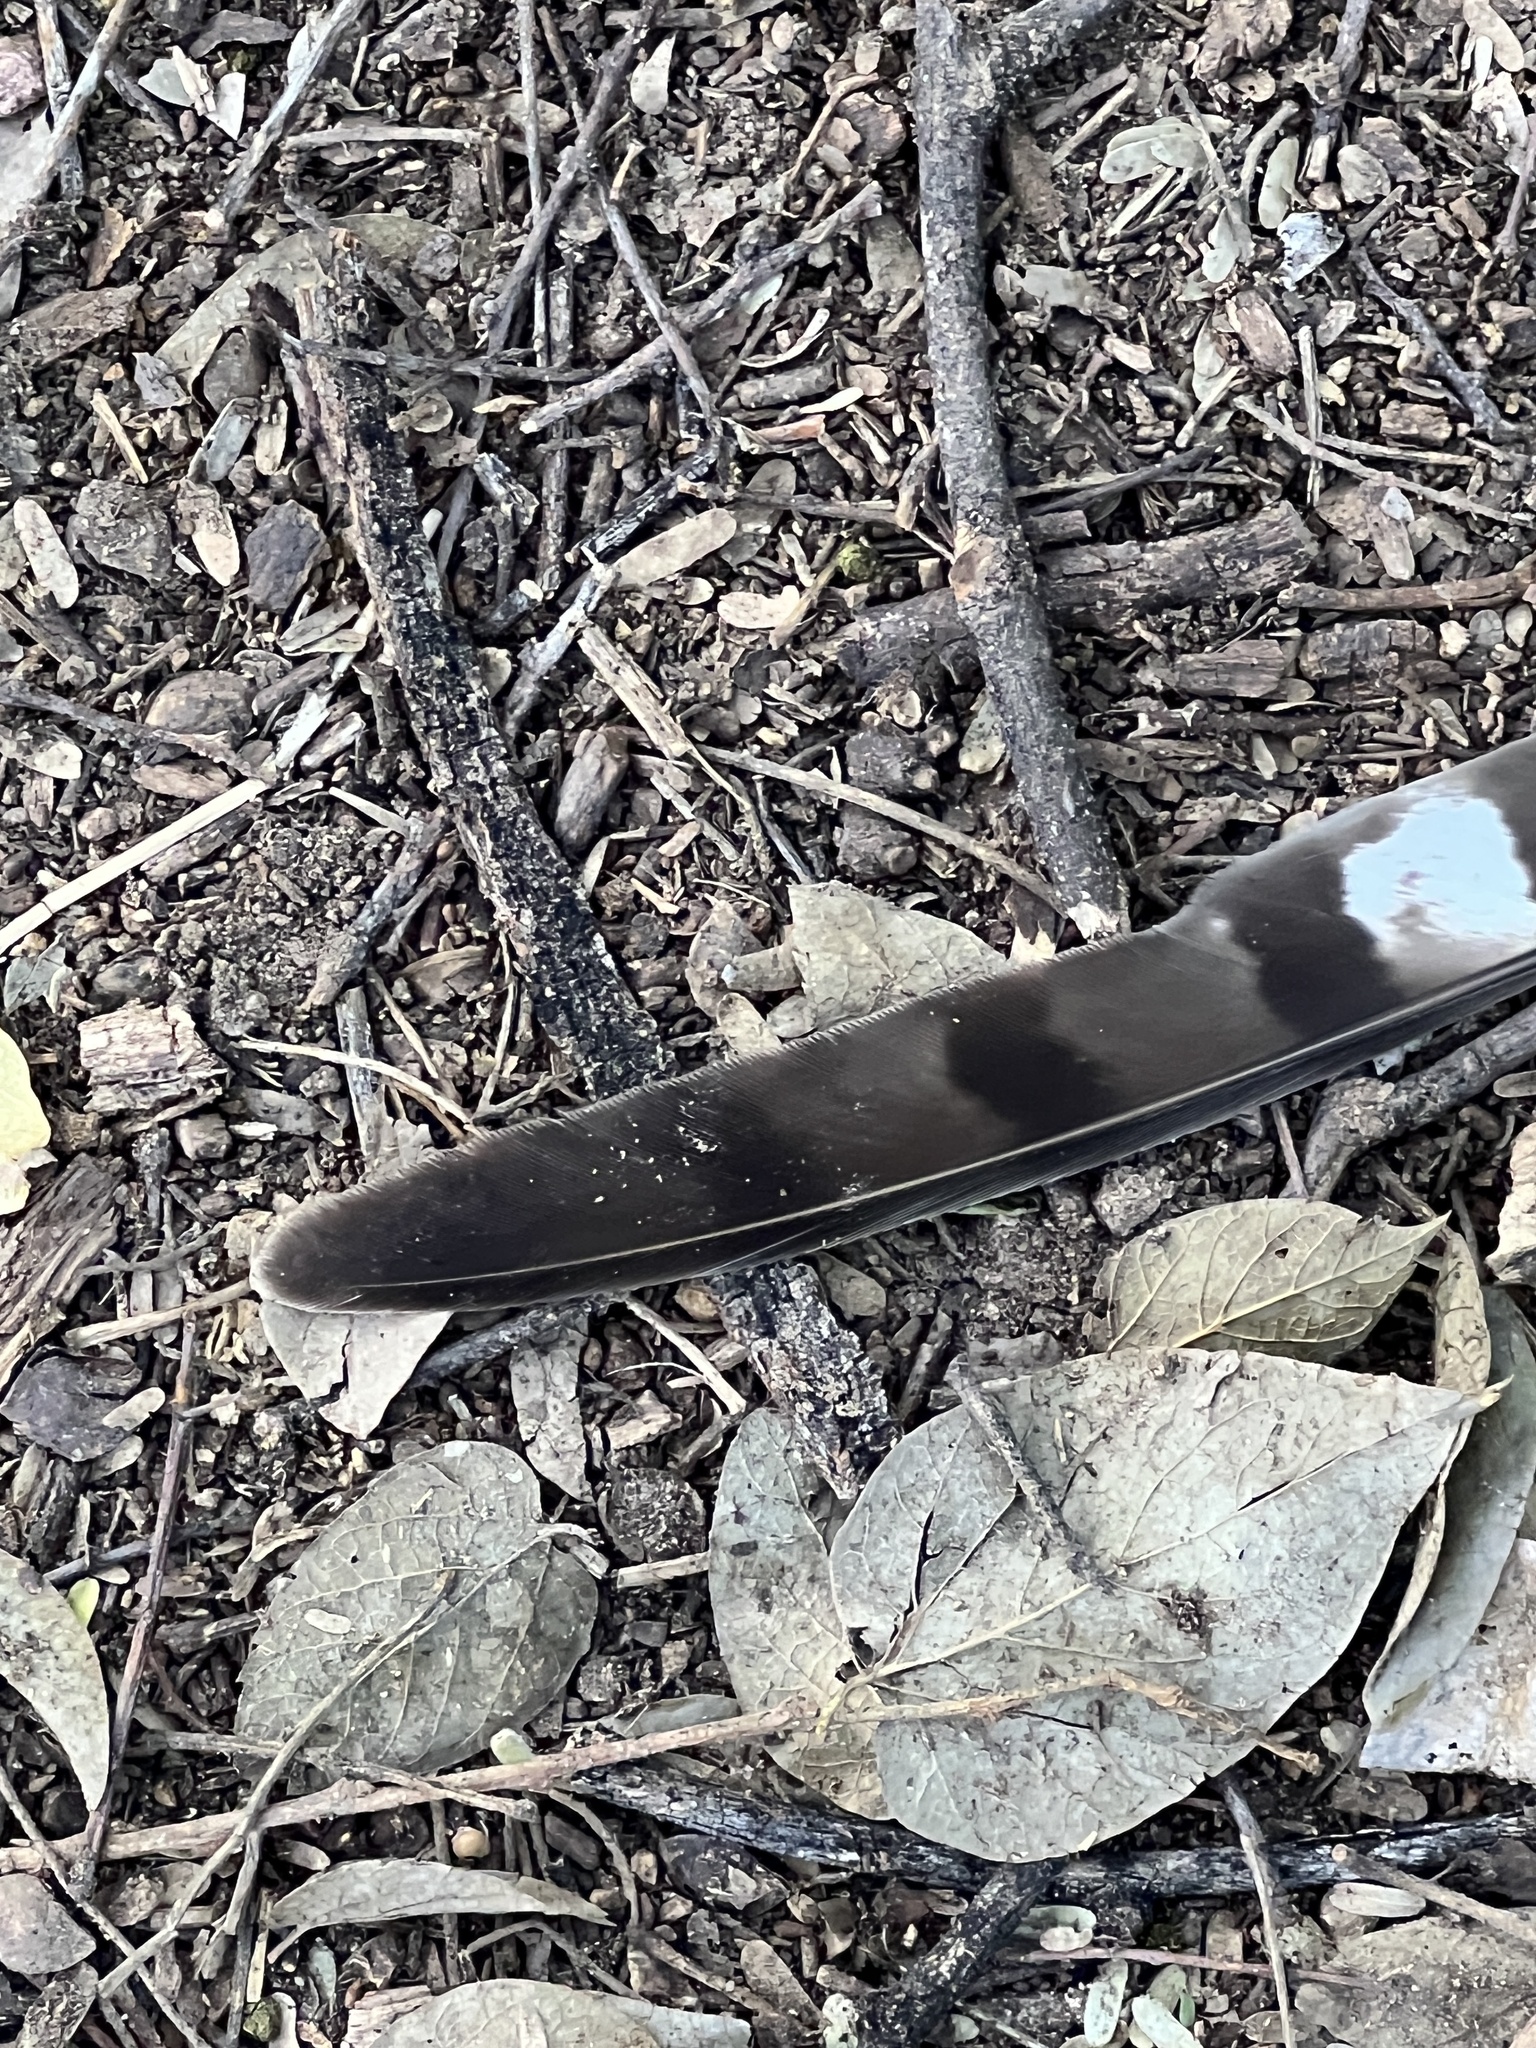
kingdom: Animalia
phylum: Chordata
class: Aves
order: Accipitriformes
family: Accipitridae
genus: Accipiter
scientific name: Accipiter cooperii
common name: Cooper's hawk
